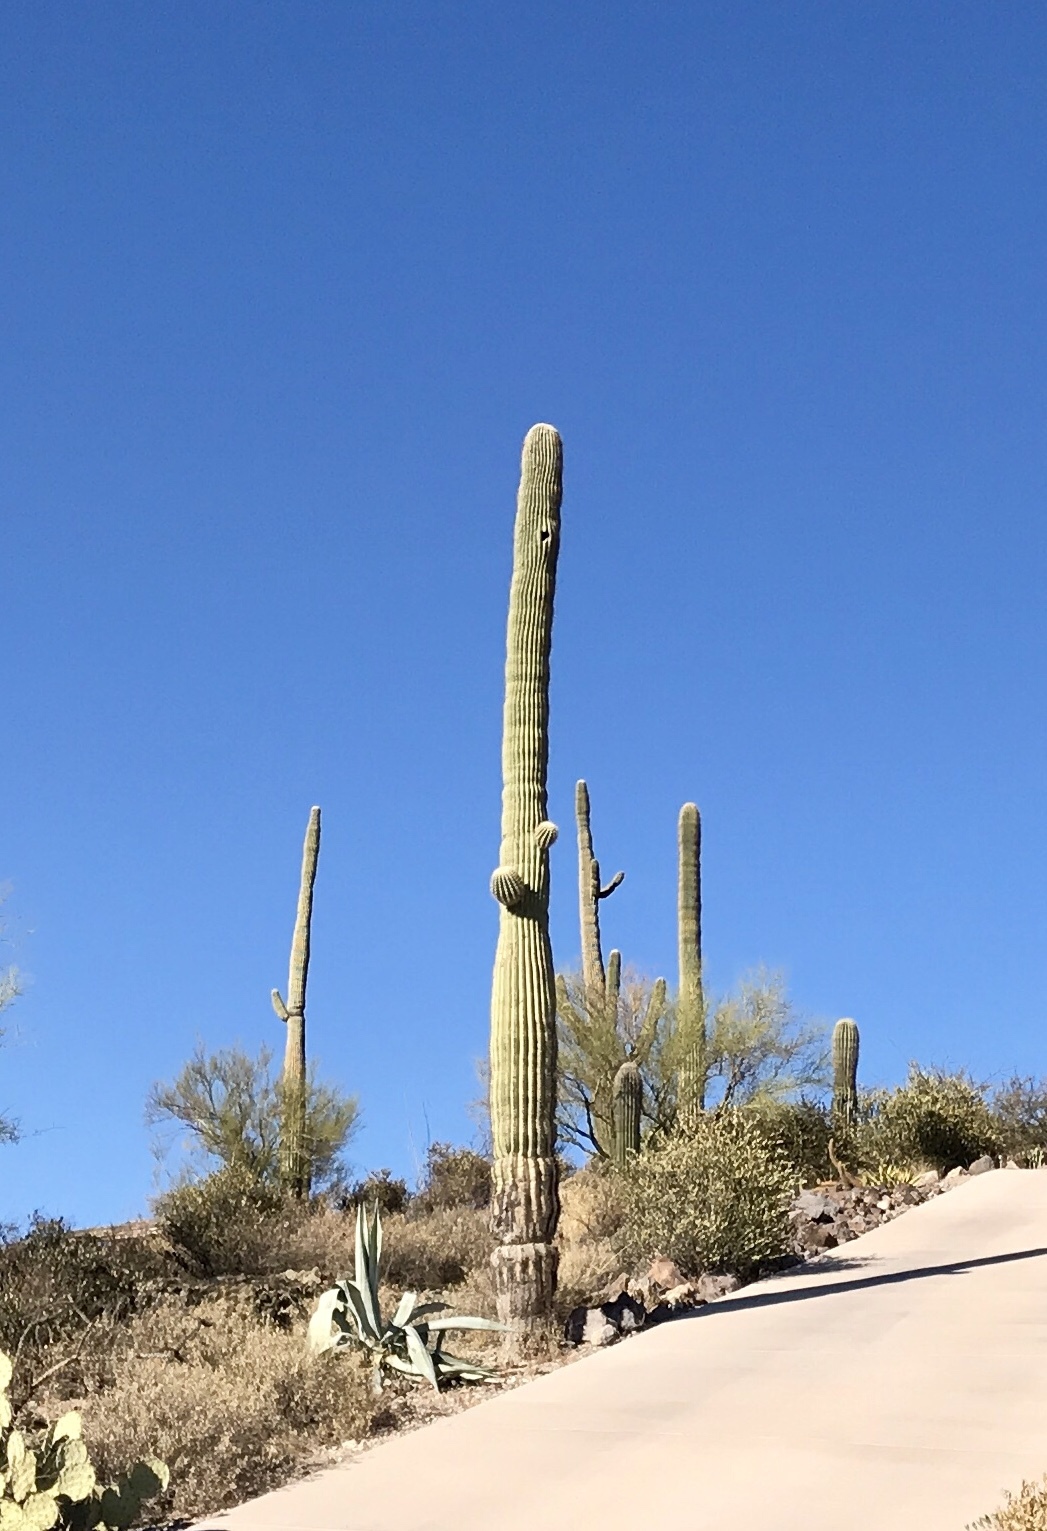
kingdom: Plantae
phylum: Tracheophyta
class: Magnoliopsida
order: Caryophyllales
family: Cactaceae
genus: Carnegiea
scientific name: Carnegiea gigantea
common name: Saguaro
